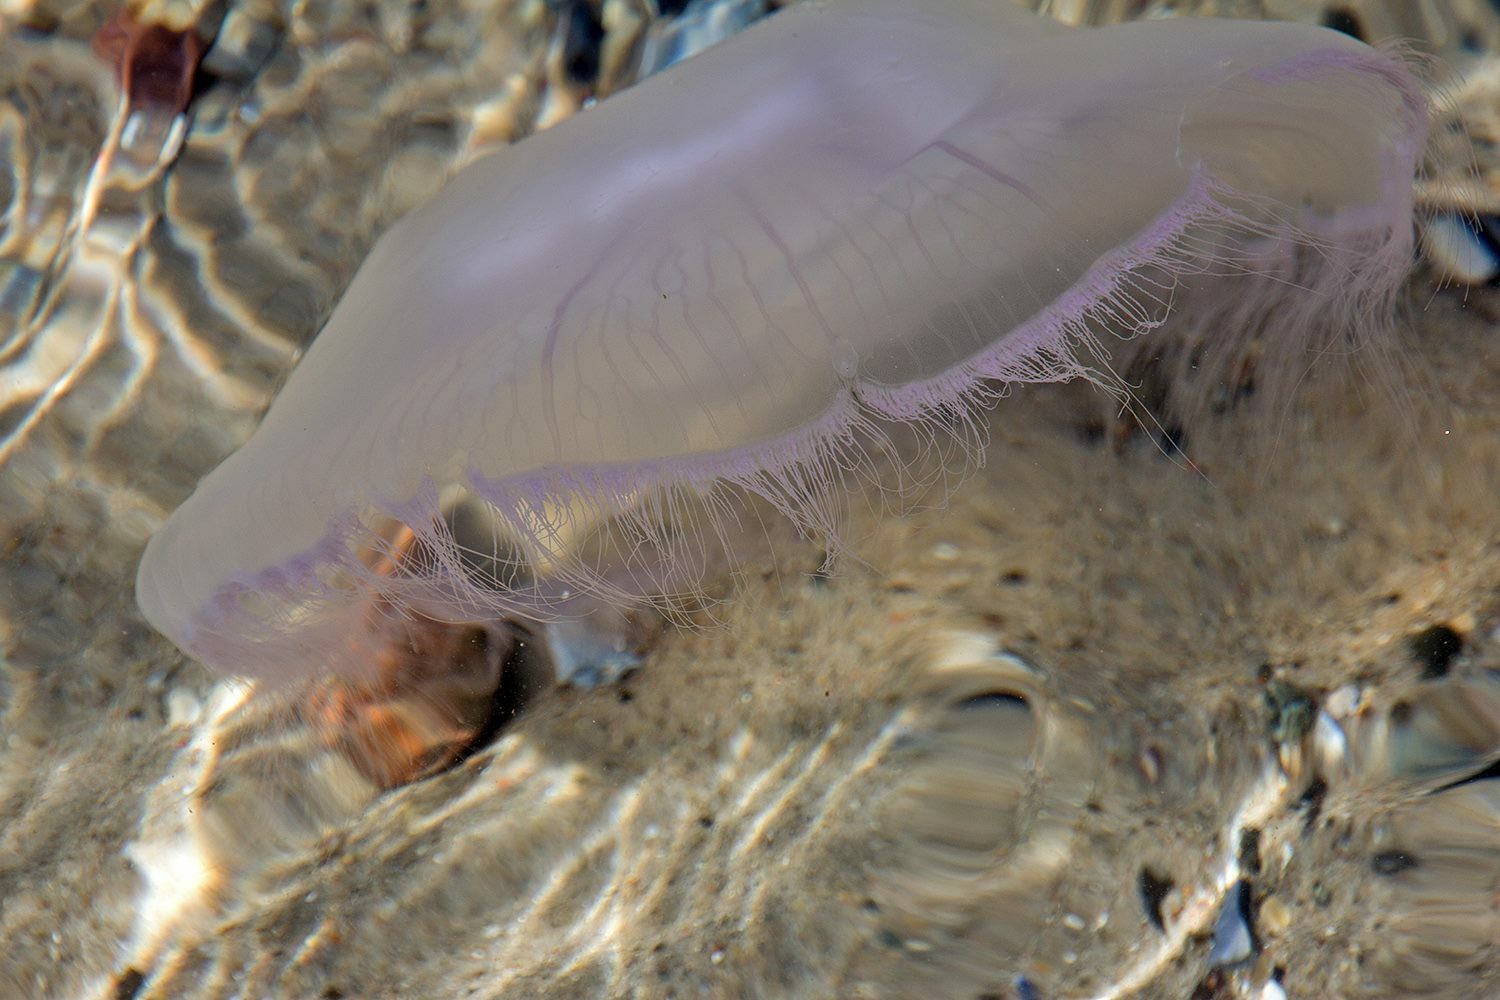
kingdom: Animalia
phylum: Cnidaria
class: Scyphozoa
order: Semaeostomeae
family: Ulmaridae
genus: Aurelia
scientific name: Aurelia aurita
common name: Moon jellyfish
